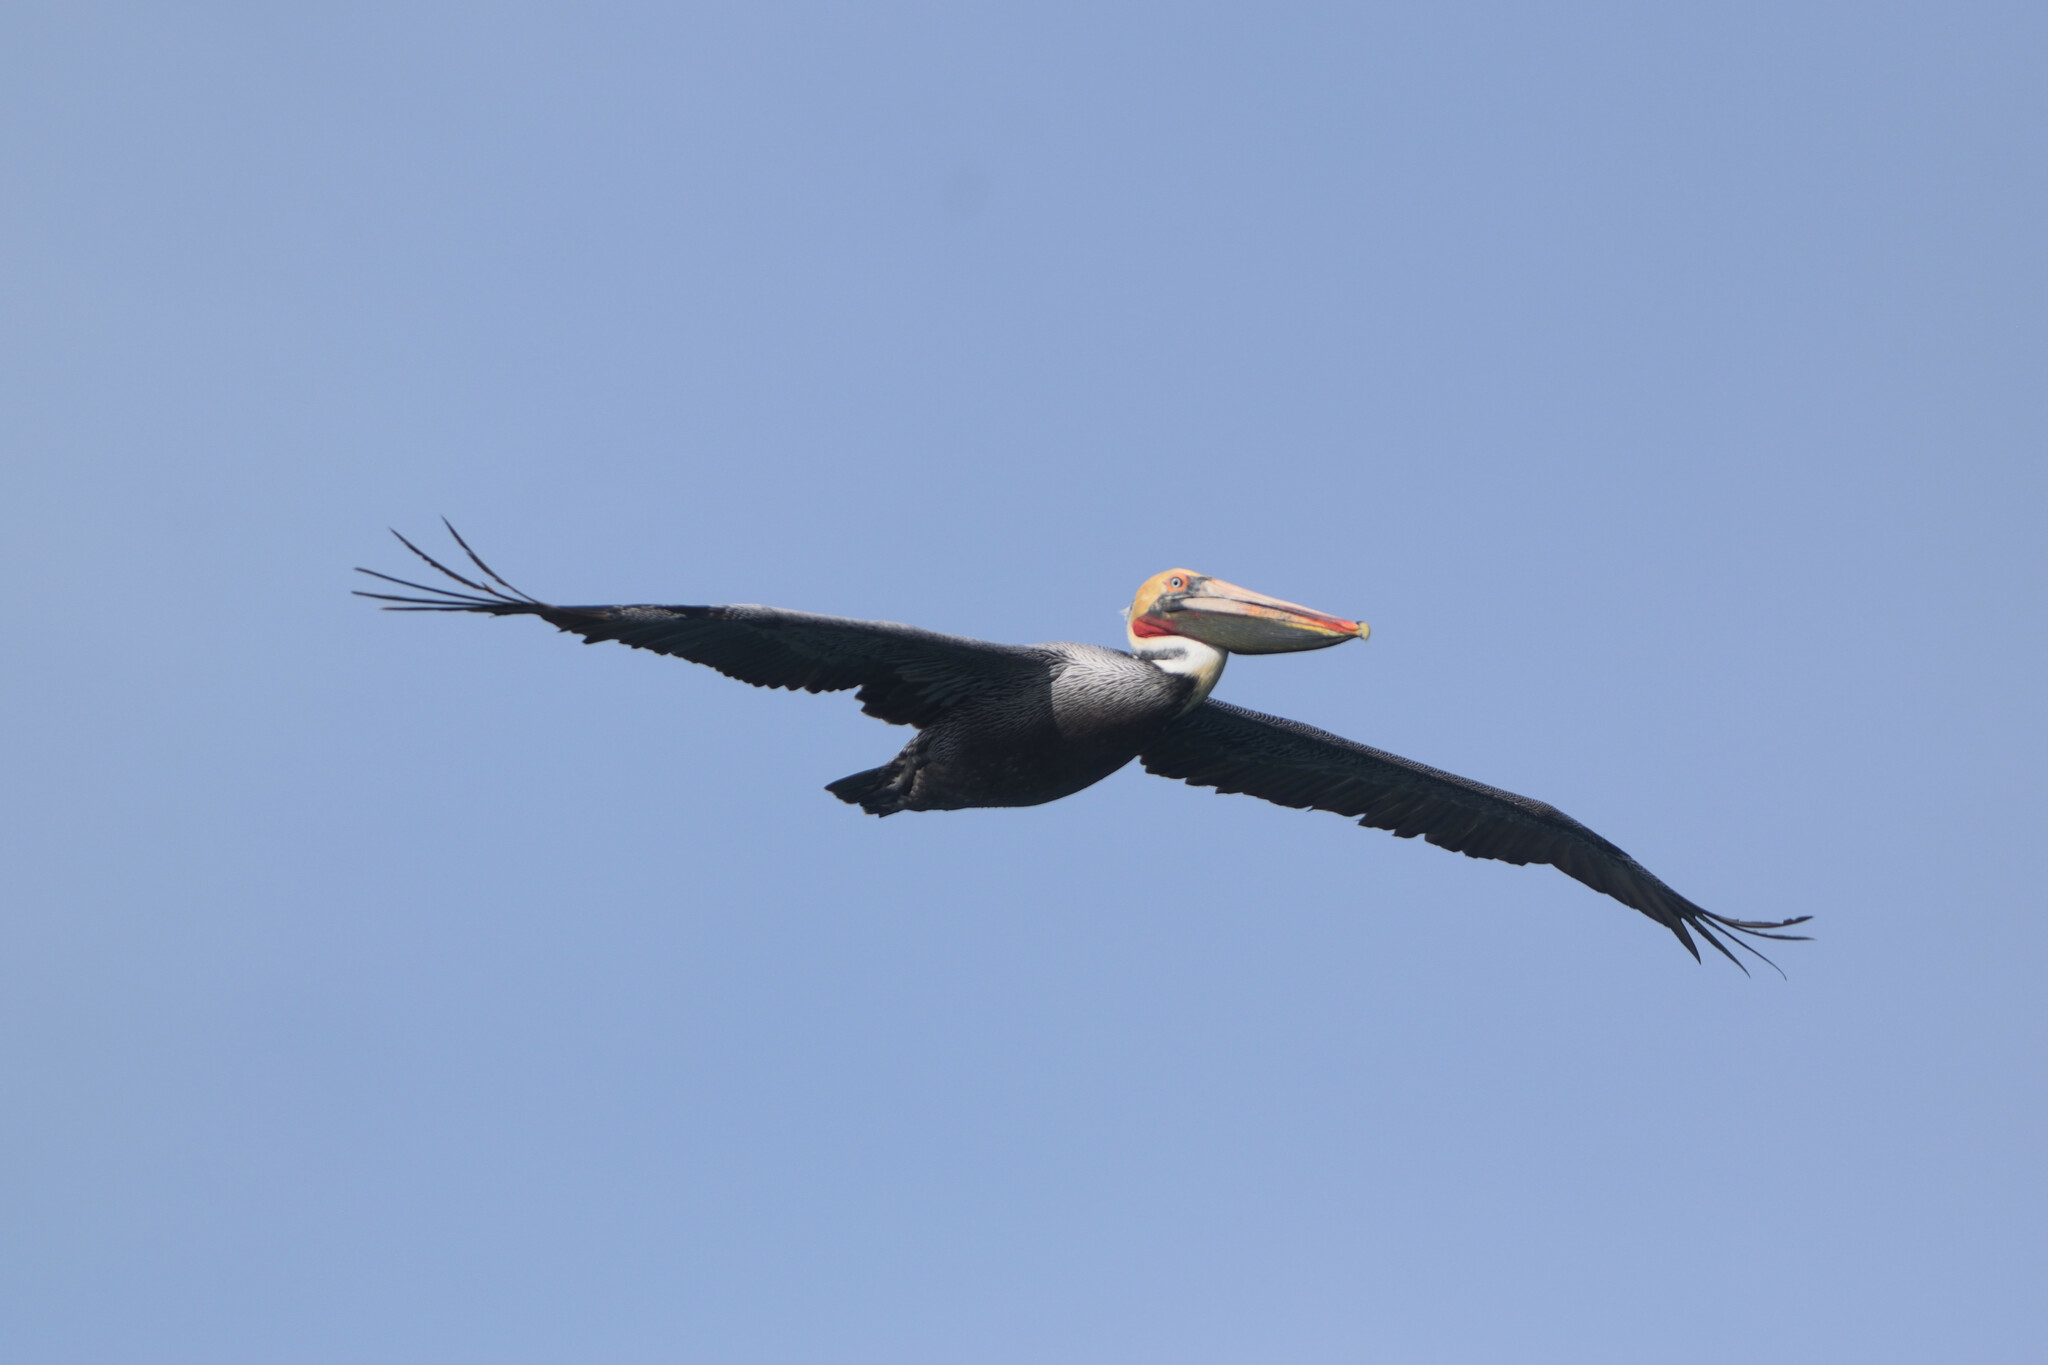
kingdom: Animalia
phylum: Chordata
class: Aves
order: Pelecaniformes
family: Pelecanidae
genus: Pelecanus
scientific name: Pelecanus occidentalis
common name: Brown pelican
